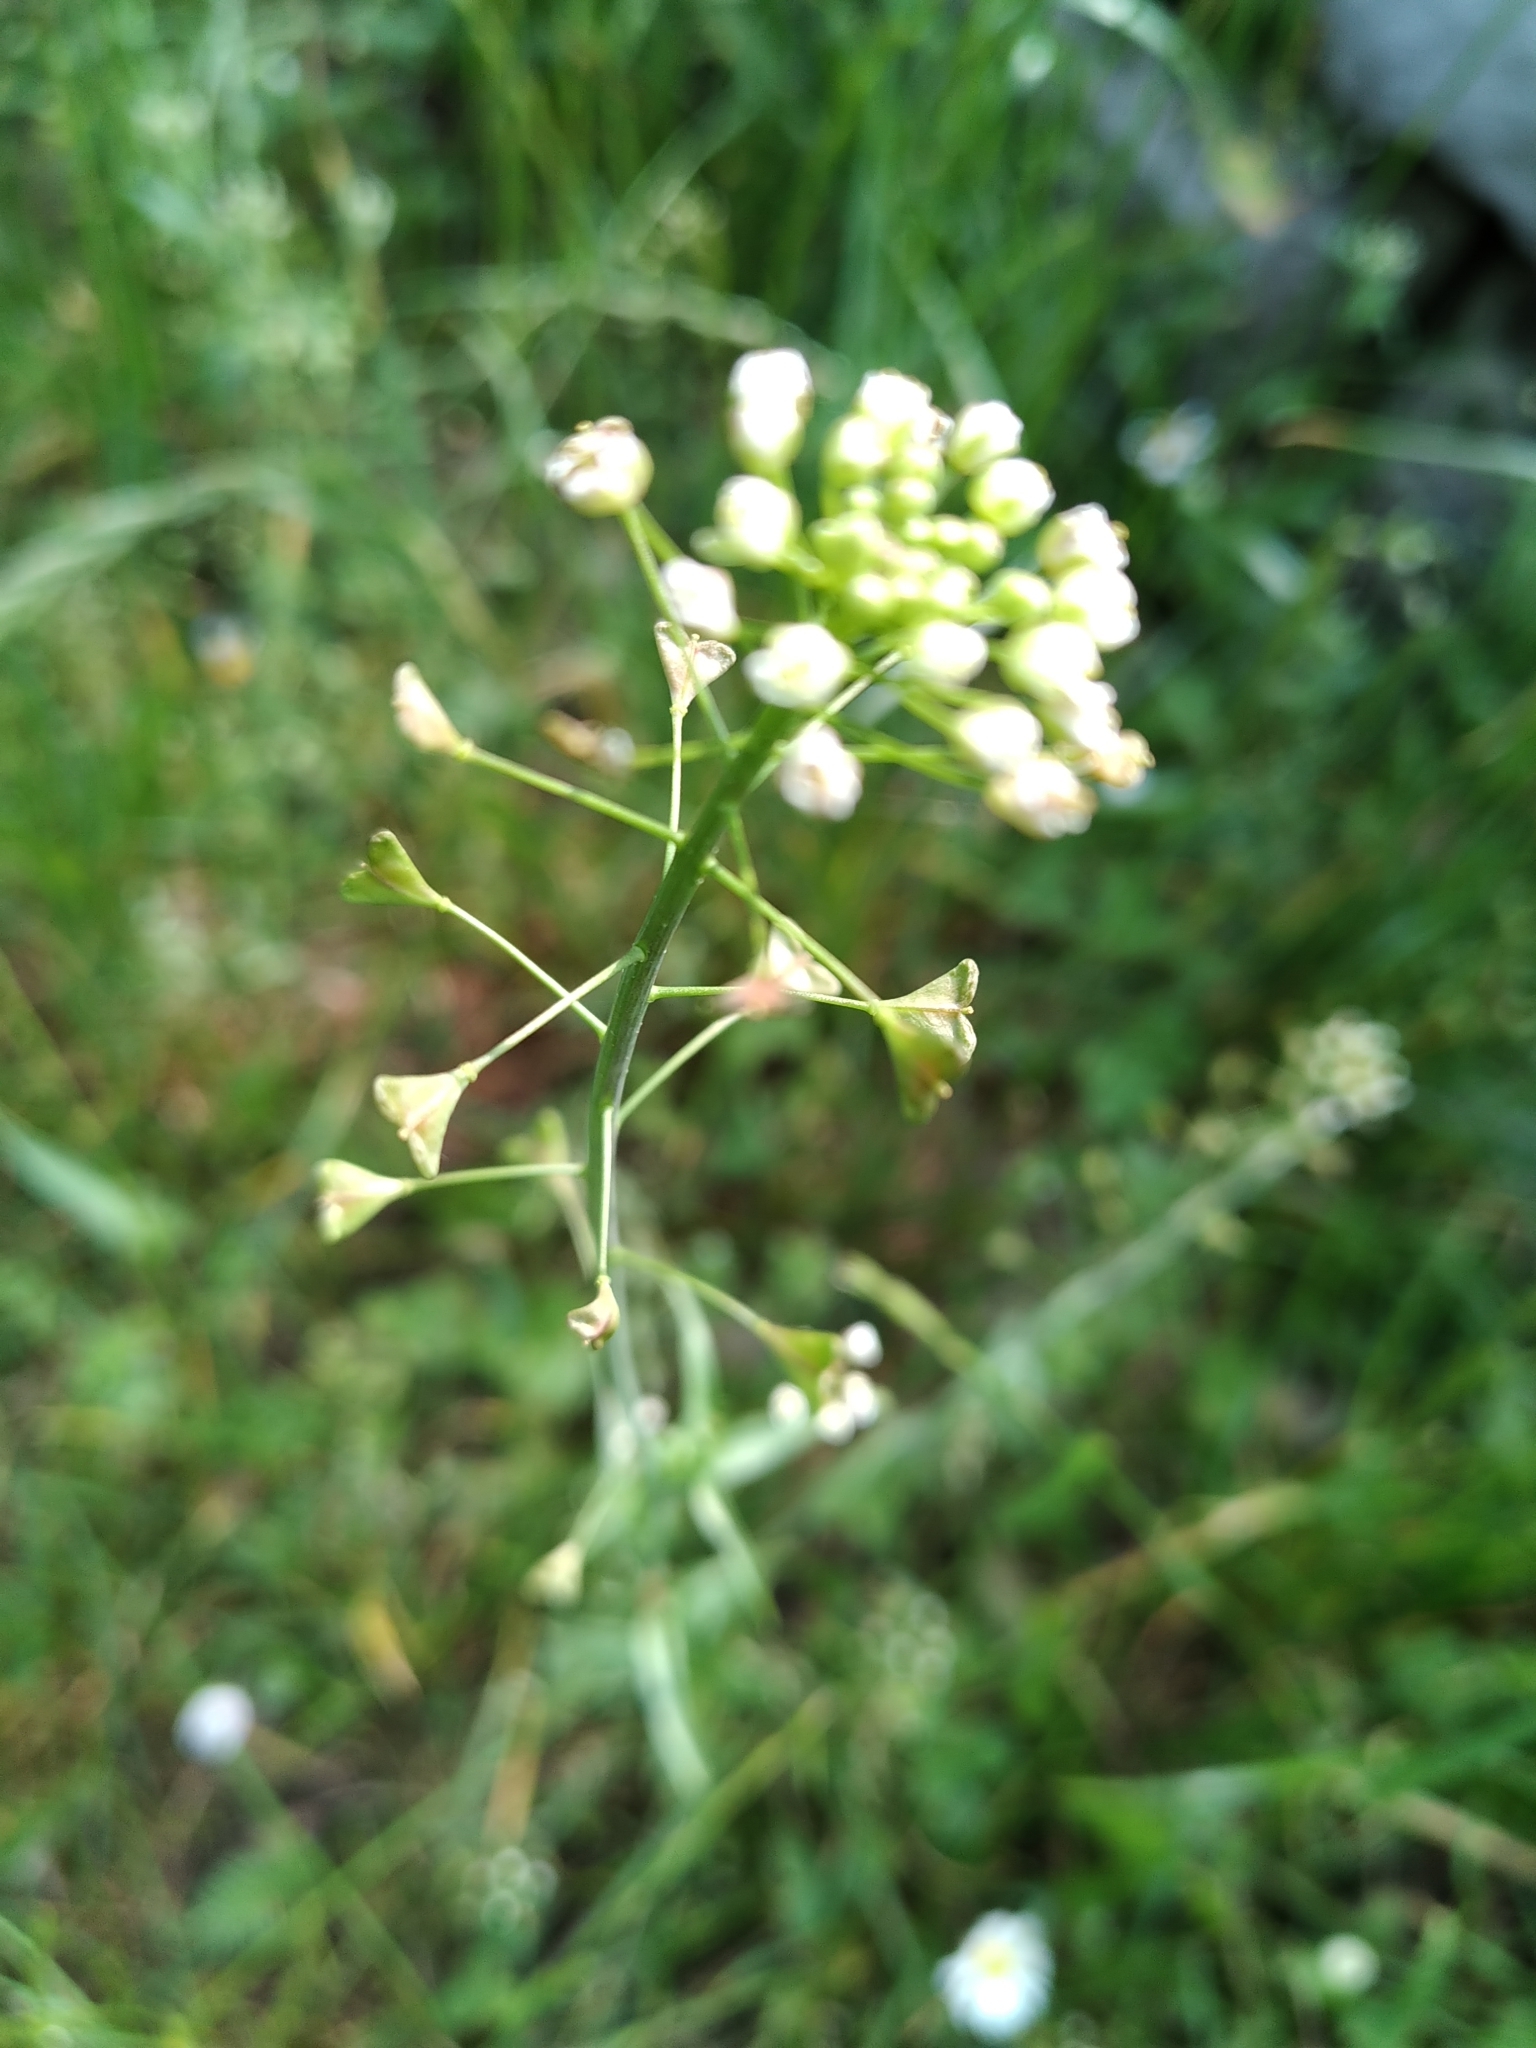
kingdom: Plantae
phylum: Tracheophyta
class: Magnoliopsida
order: Brassicales
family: Brassicaceae
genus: Capsella
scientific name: Capsella bursa-pastoris
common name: Shepherd's purse
